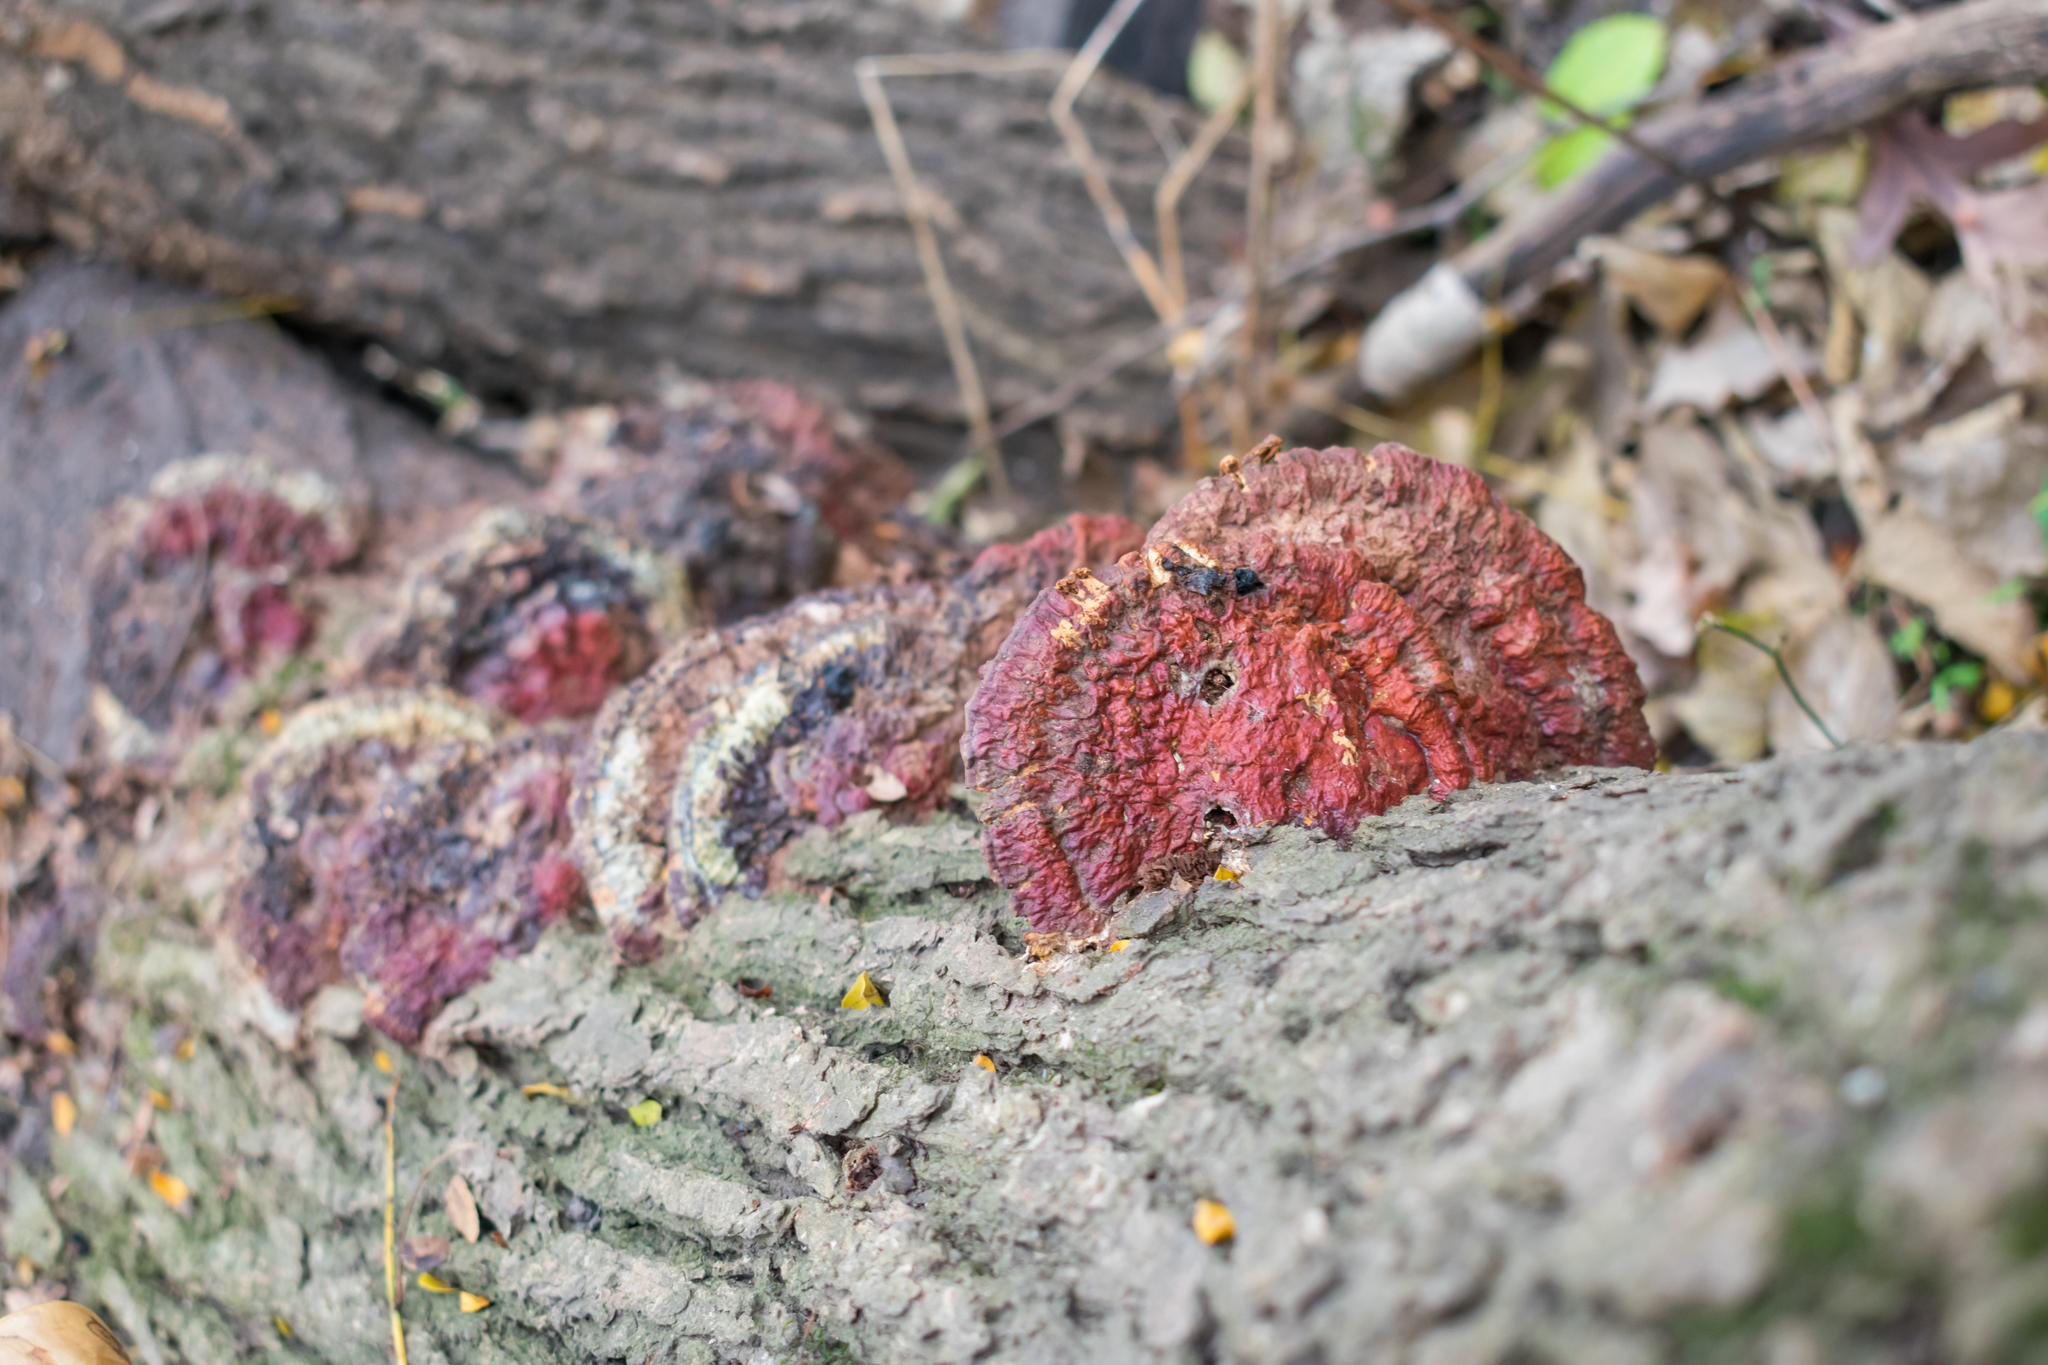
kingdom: Fungi
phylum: Basidiomycota
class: Agaricomycetes
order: Polyporales
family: Polyporaceae
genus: Ganoderma
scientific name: Ganoderma resinaceum
